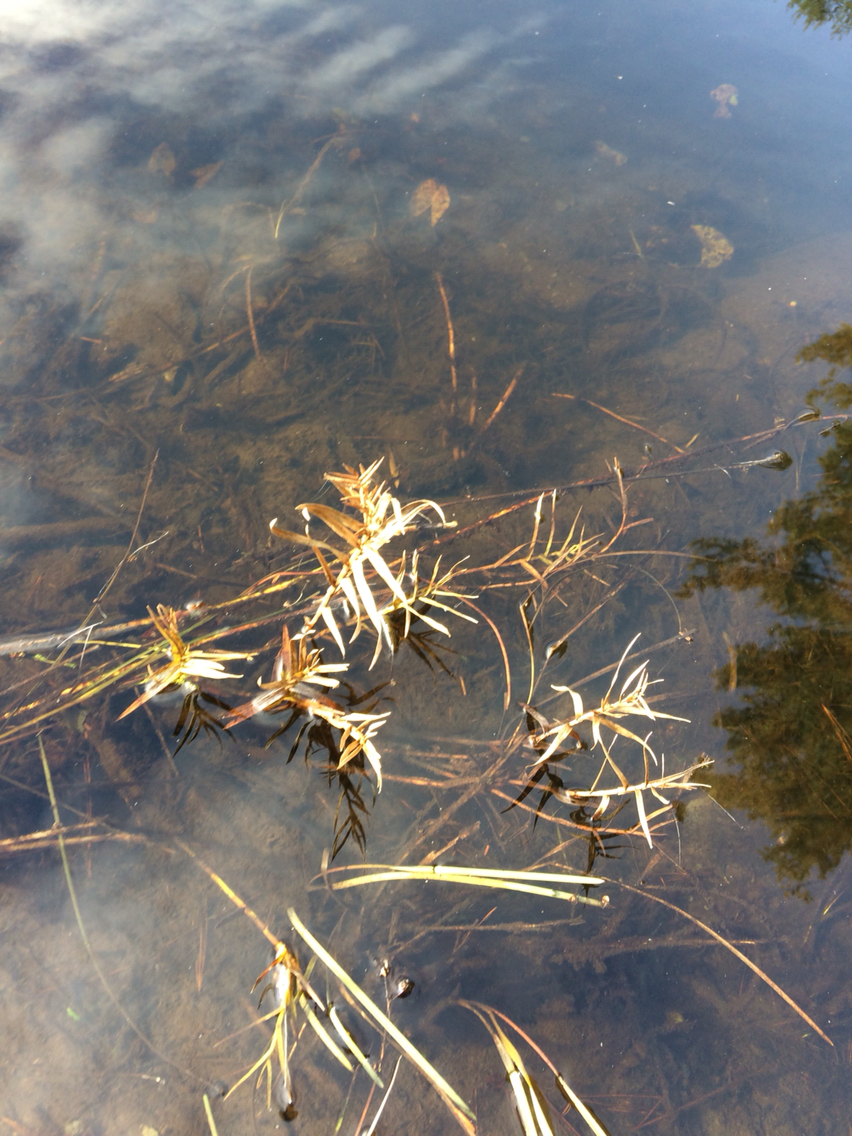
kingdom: Plantae
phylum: Tracheophyta
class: Liliopsida
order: Poales
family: Cyperaceae
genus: Dulichium
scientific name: Dulichium arundinaceum
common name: Three-way sedge
